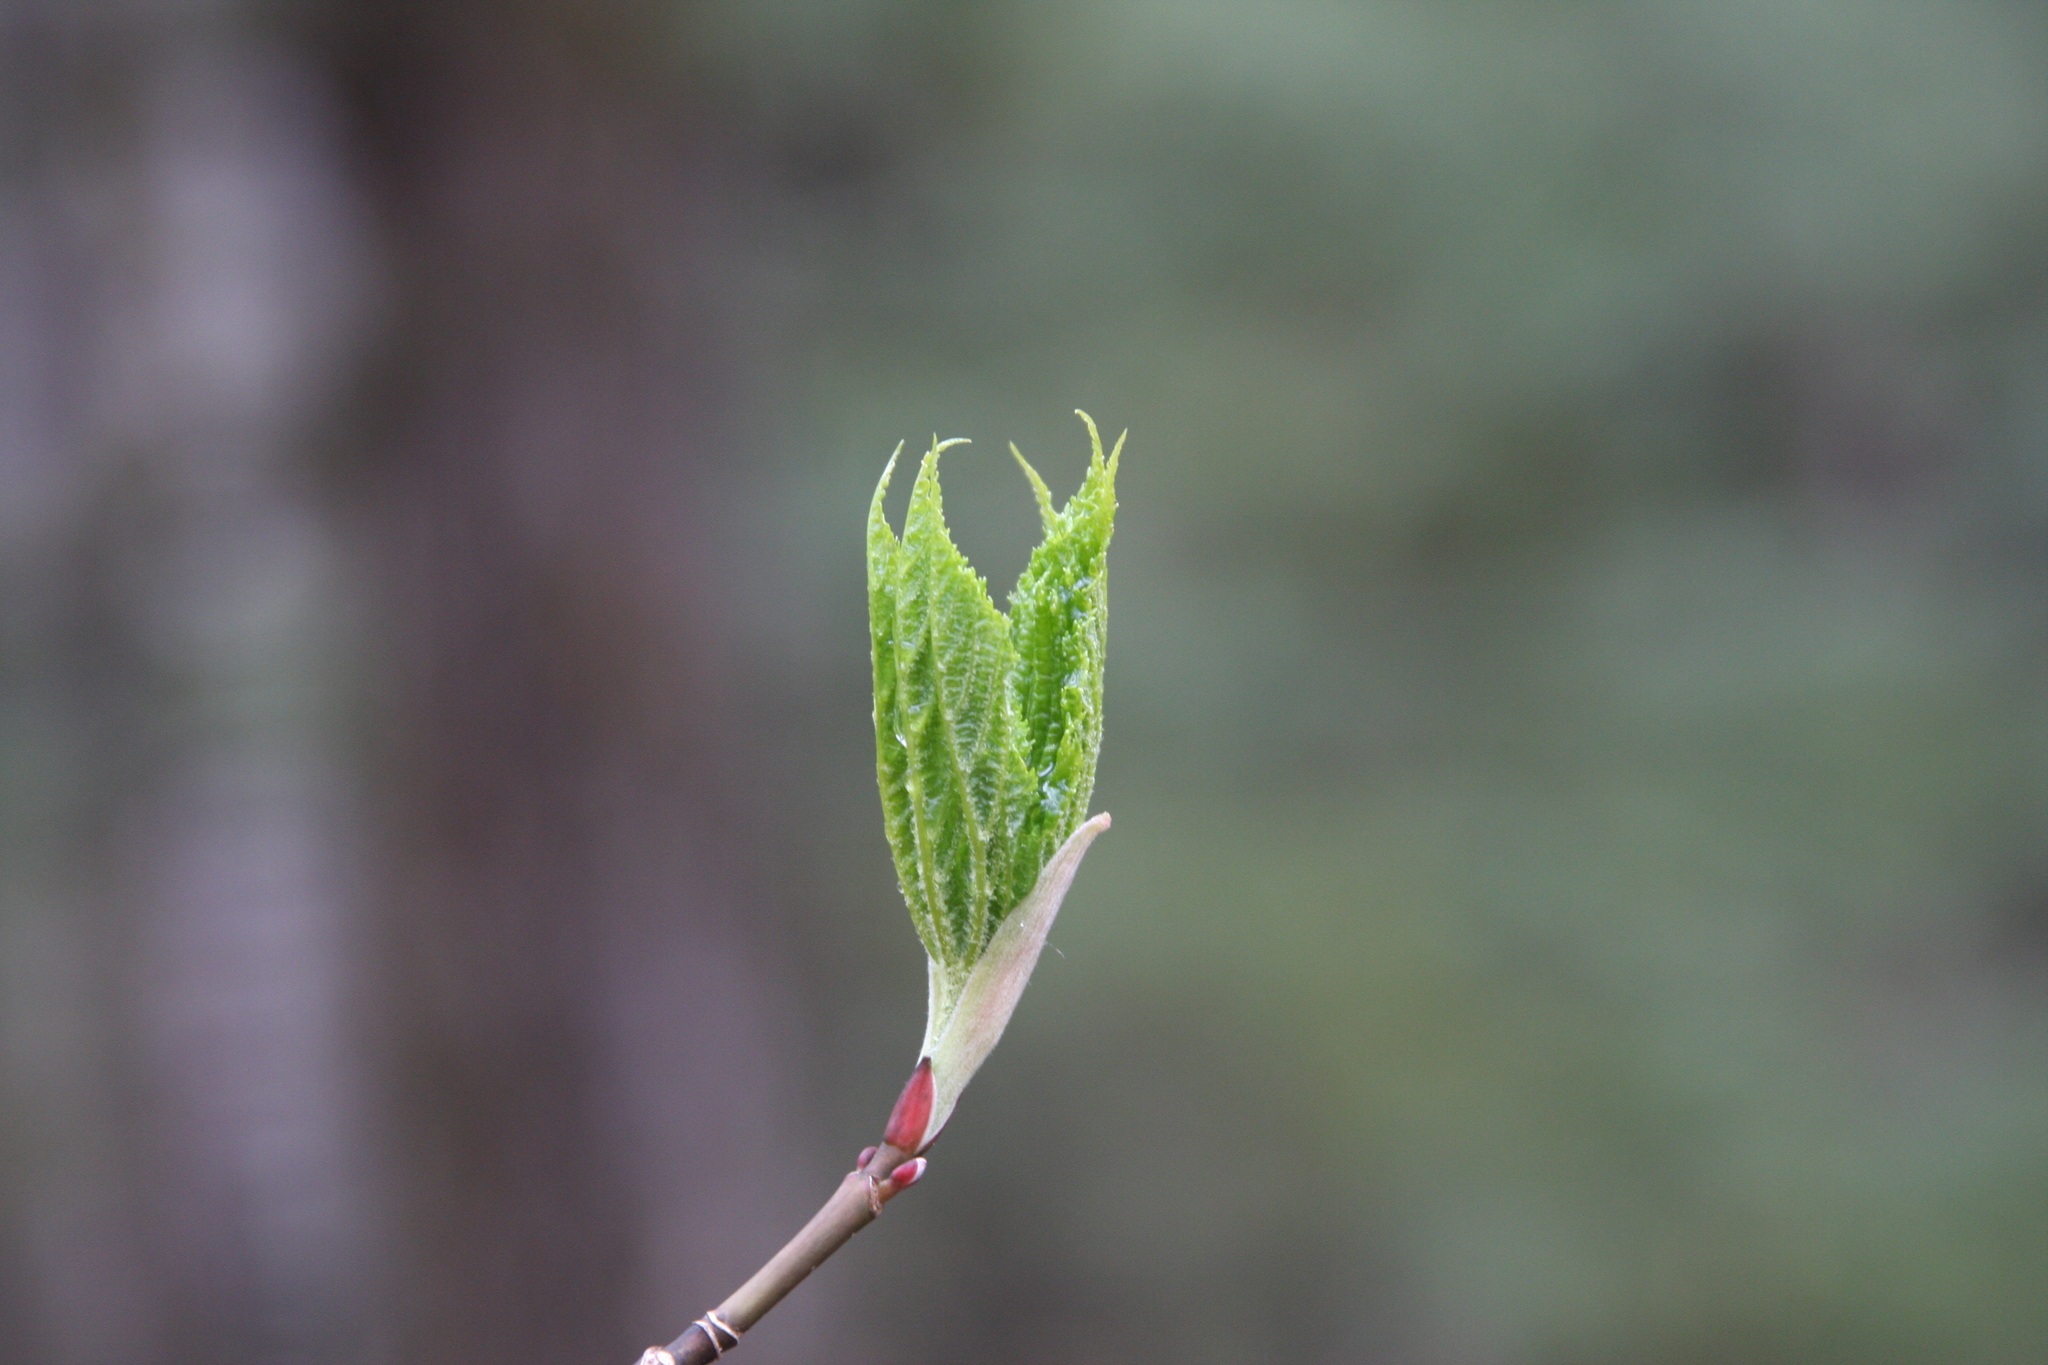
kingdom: Plantae
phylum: Tracheophyta
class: Magnoliopsida
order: Sapindales
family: Sapindaceae
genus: Acer
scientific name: Acer pensylvanicum
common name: Moosewood
